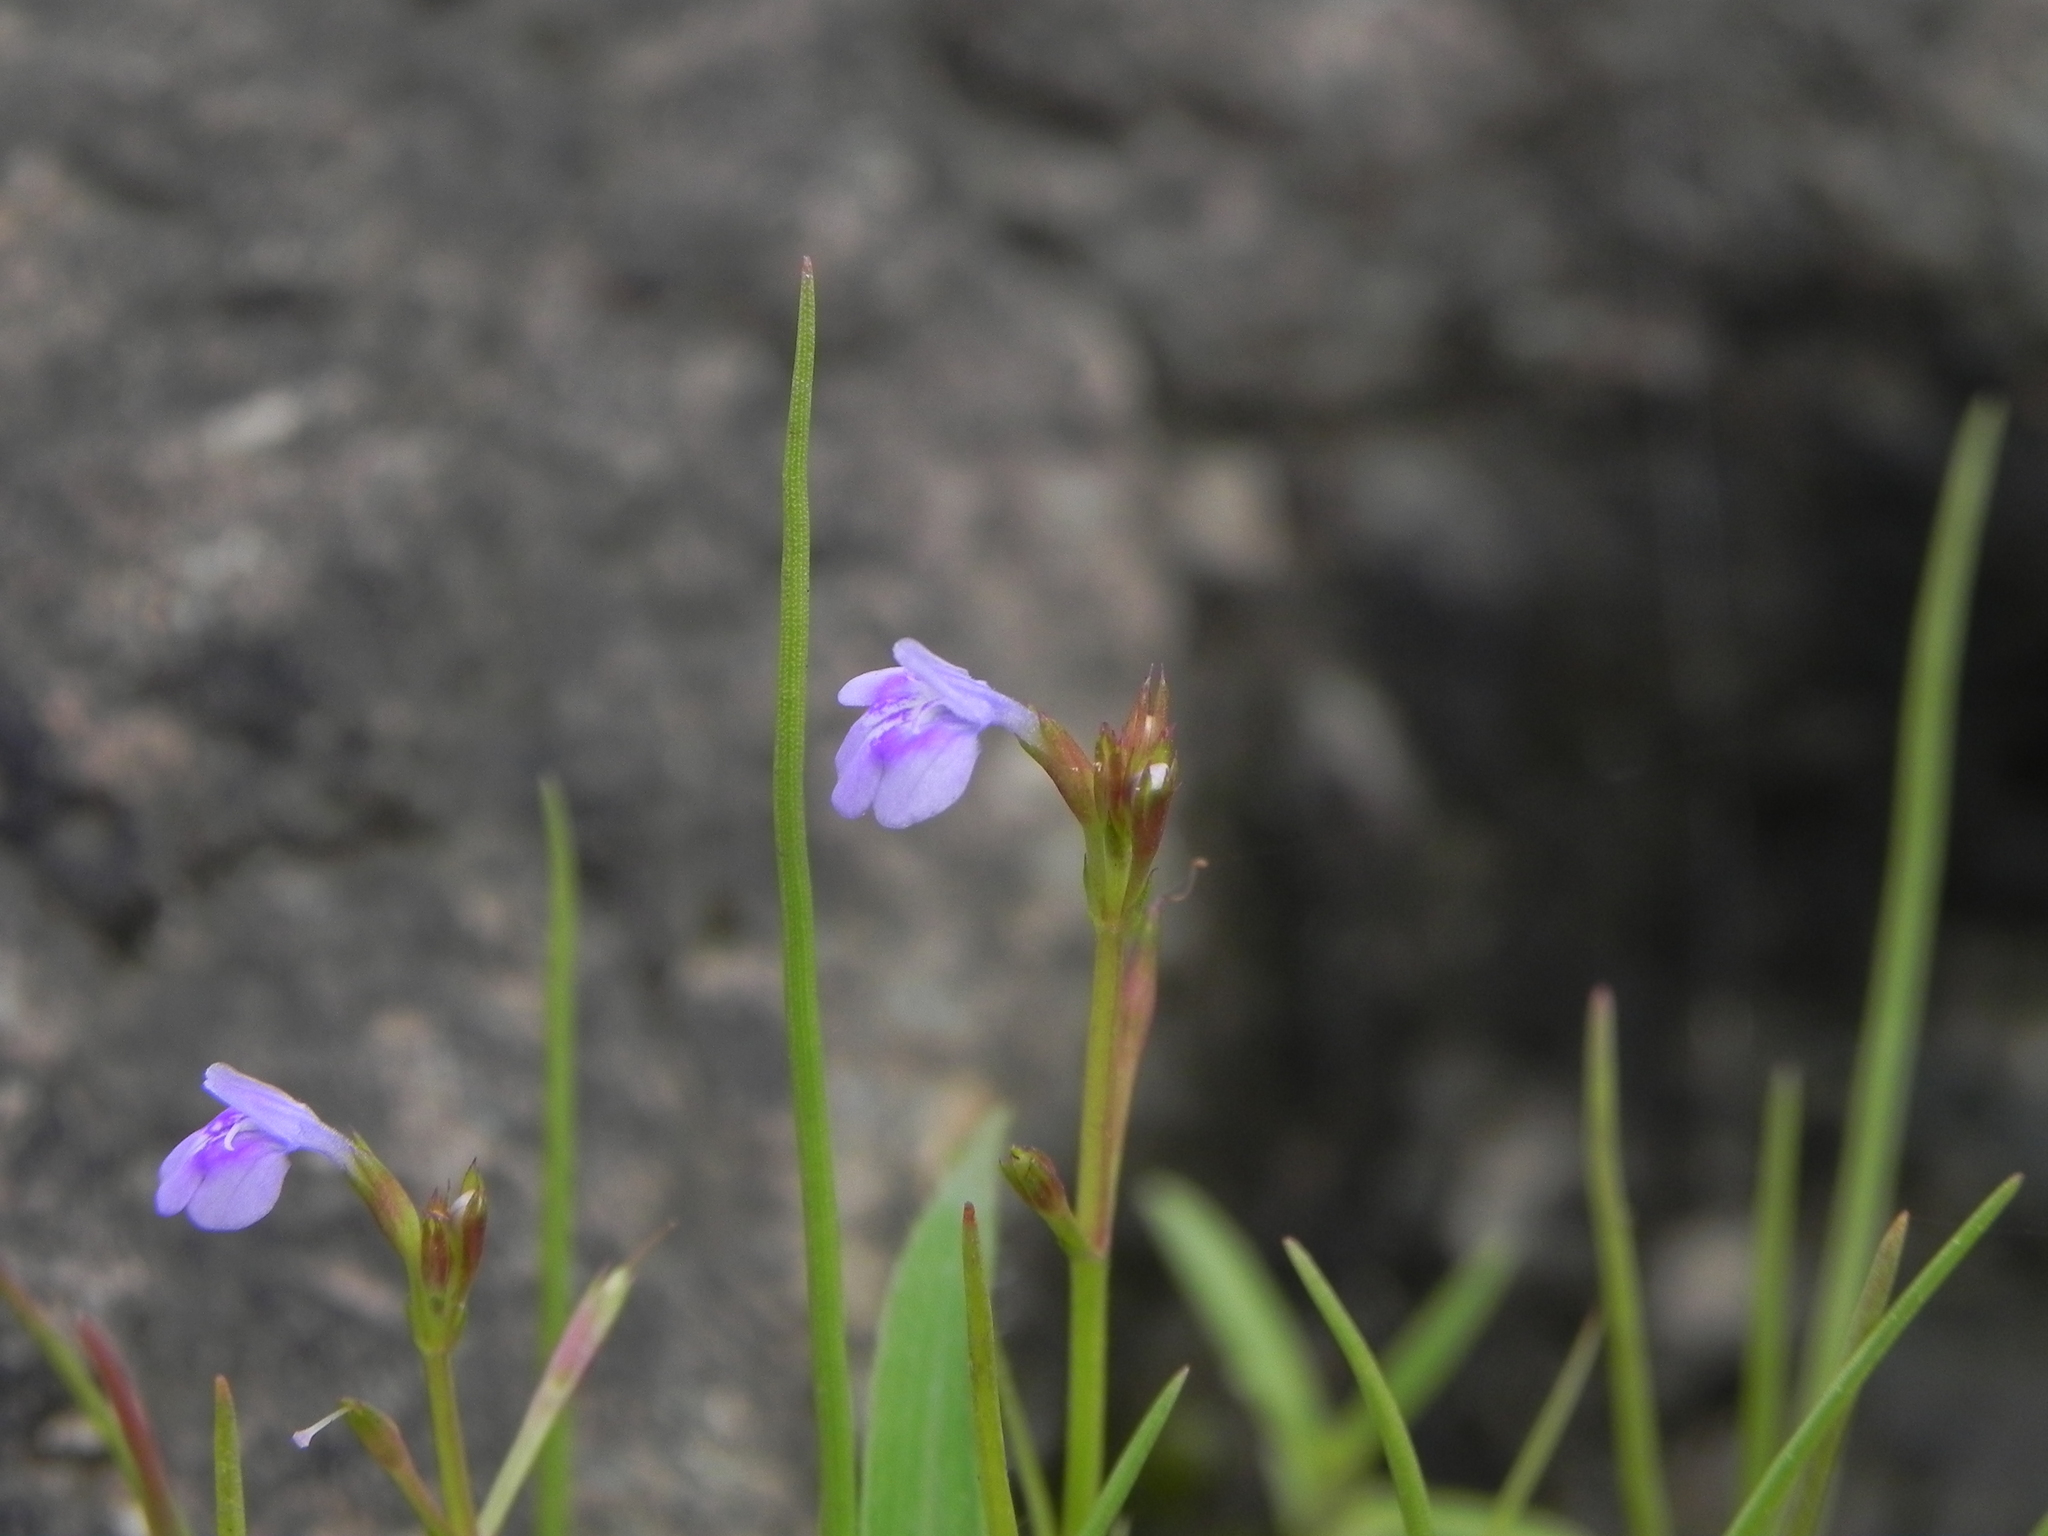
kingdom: Plantae
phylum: Tracheophyta
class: Magnoliopsida
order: Lamiales
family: Linderniaceae
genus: Bonnaya
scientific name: Bonnaya ciliata
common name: Hairy slitwort
